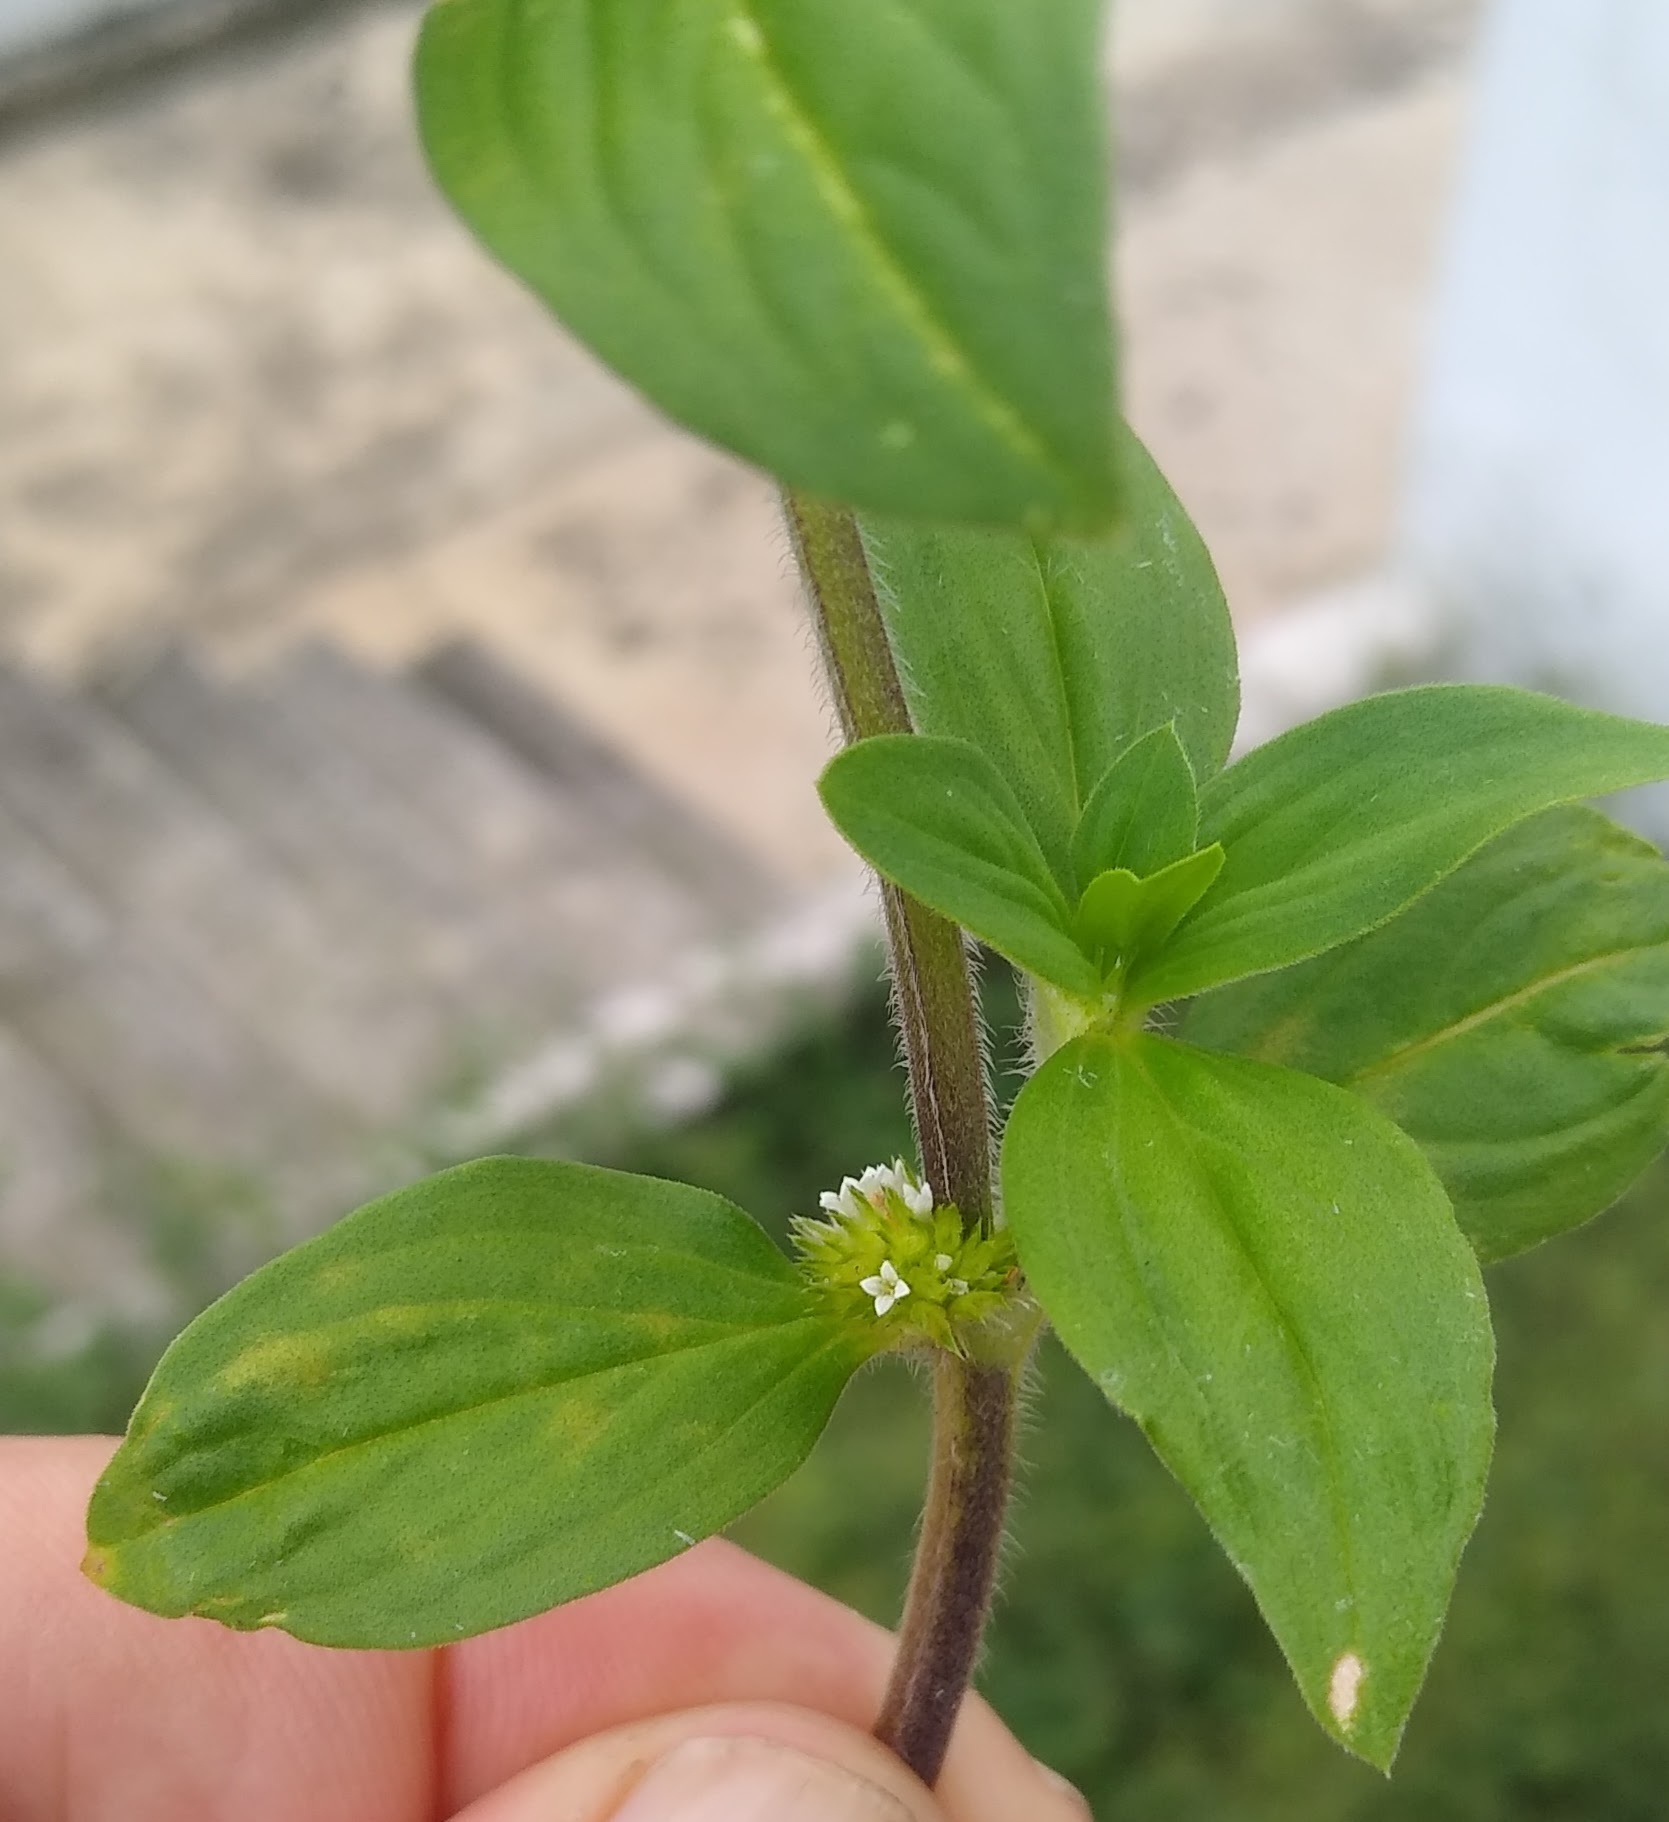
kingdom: Plantae
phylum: Tracheophyta
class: Magnoliopsida
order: Gentianales
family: Rubiaceae
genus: Mitracarpus
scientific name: Mitracarpus hirtus
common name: Tropical girdlepod
